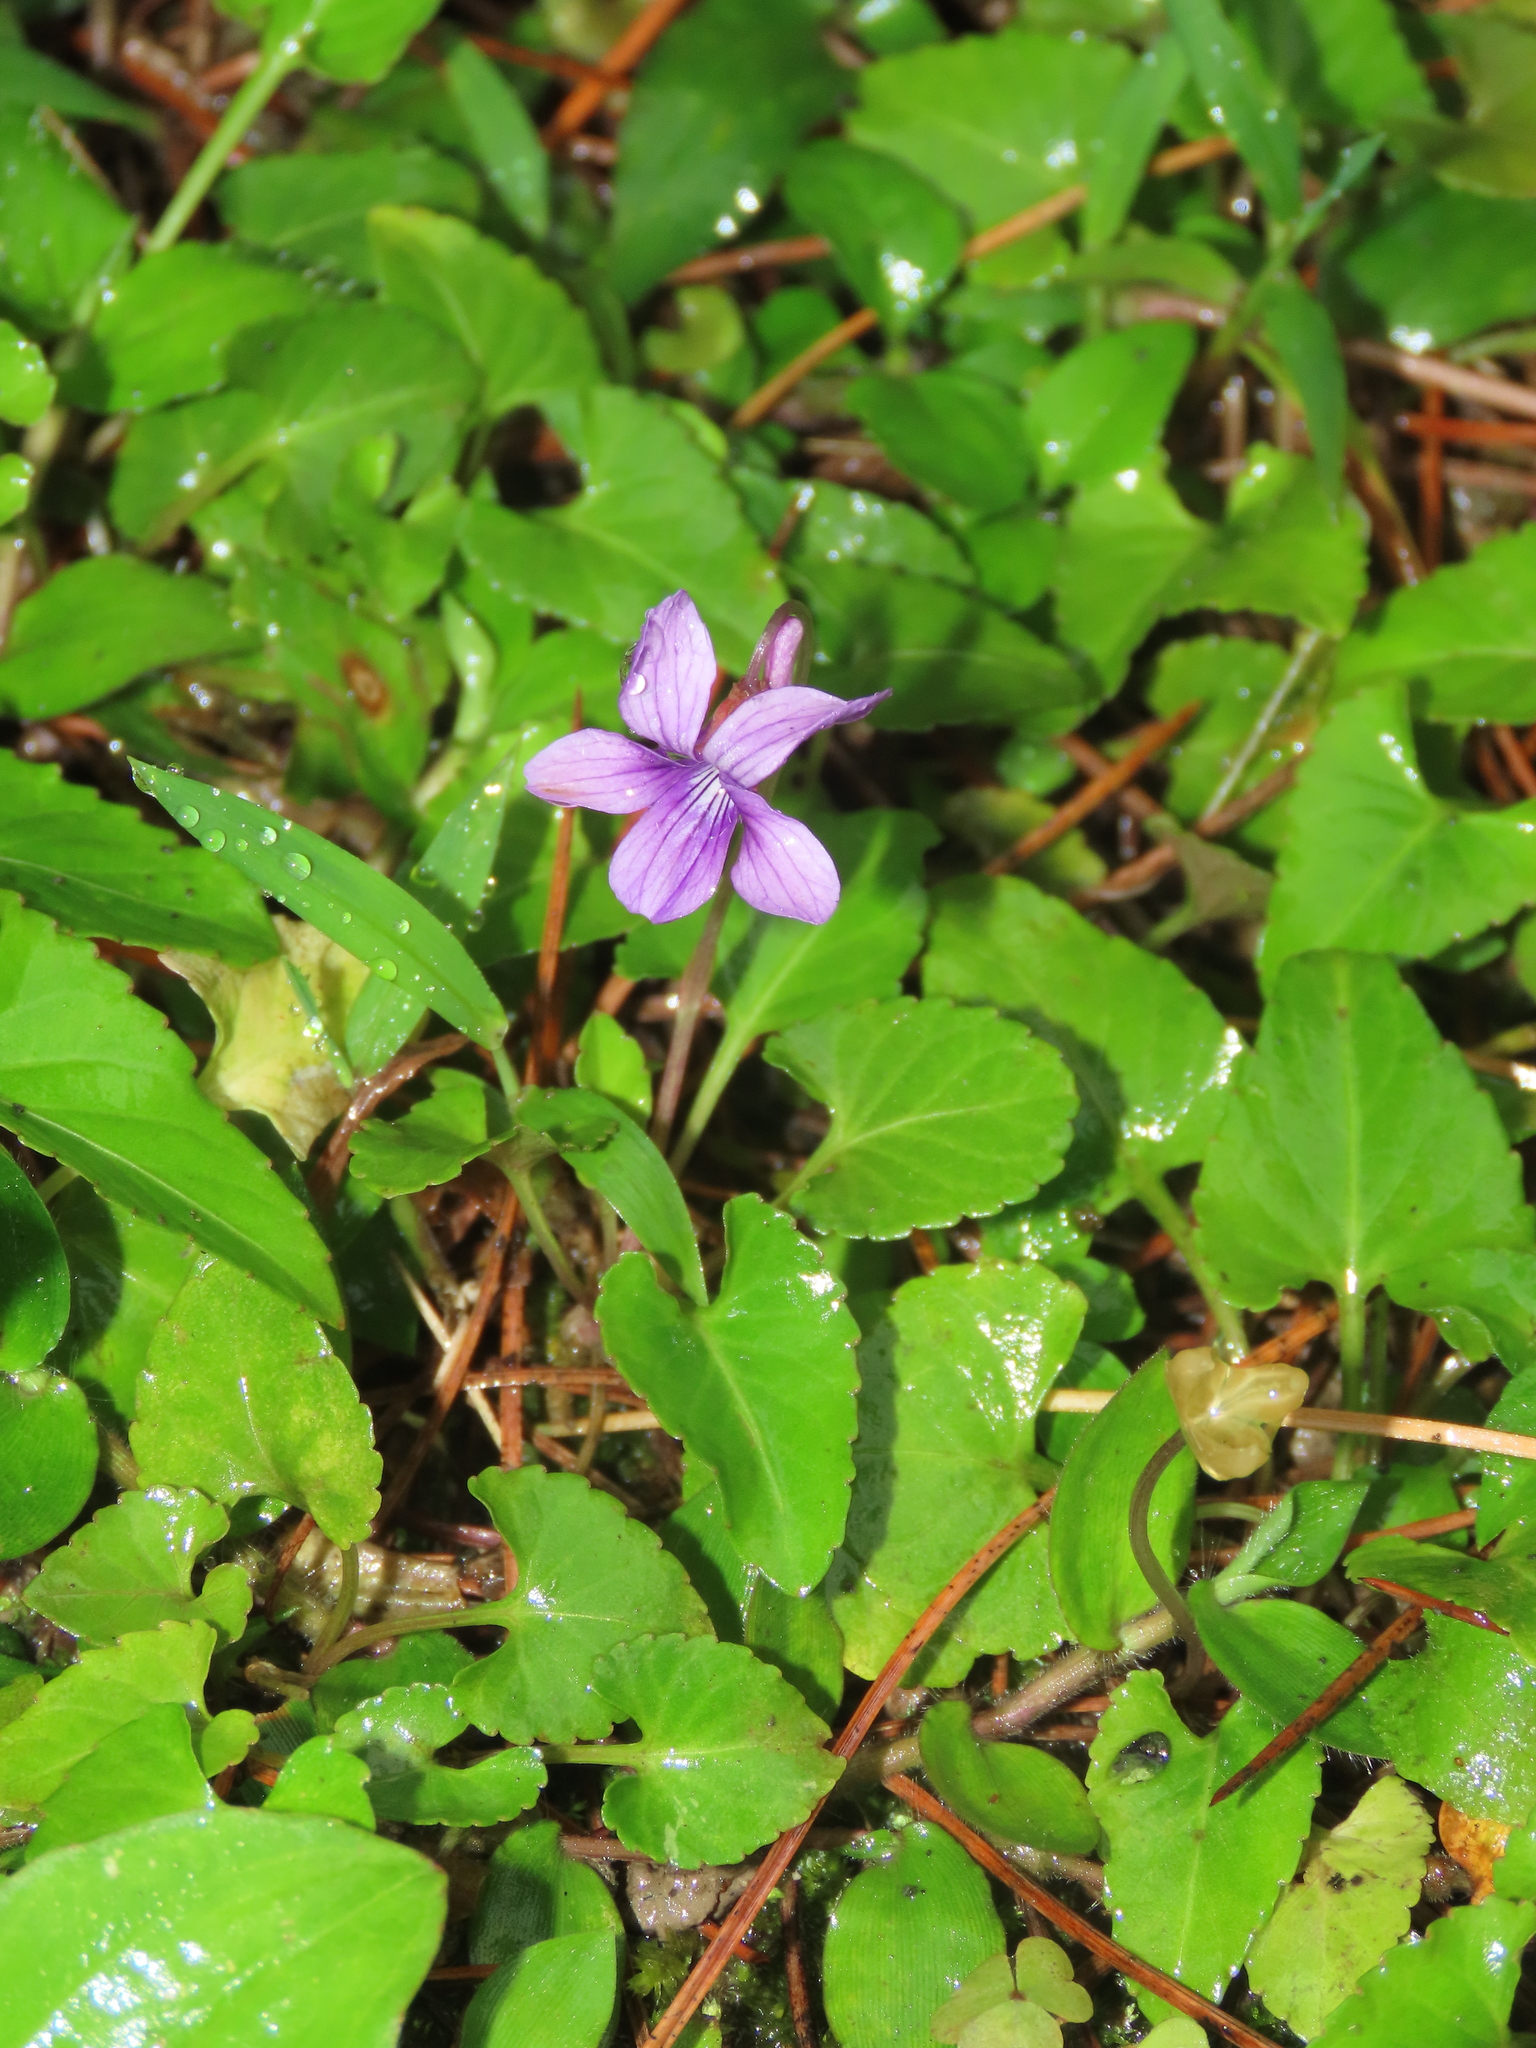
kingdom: Plantae
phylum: Tracheophyta
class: Magnoliopsida
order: Malpighiales
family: Violaceae
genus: Viola
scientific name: Viola
